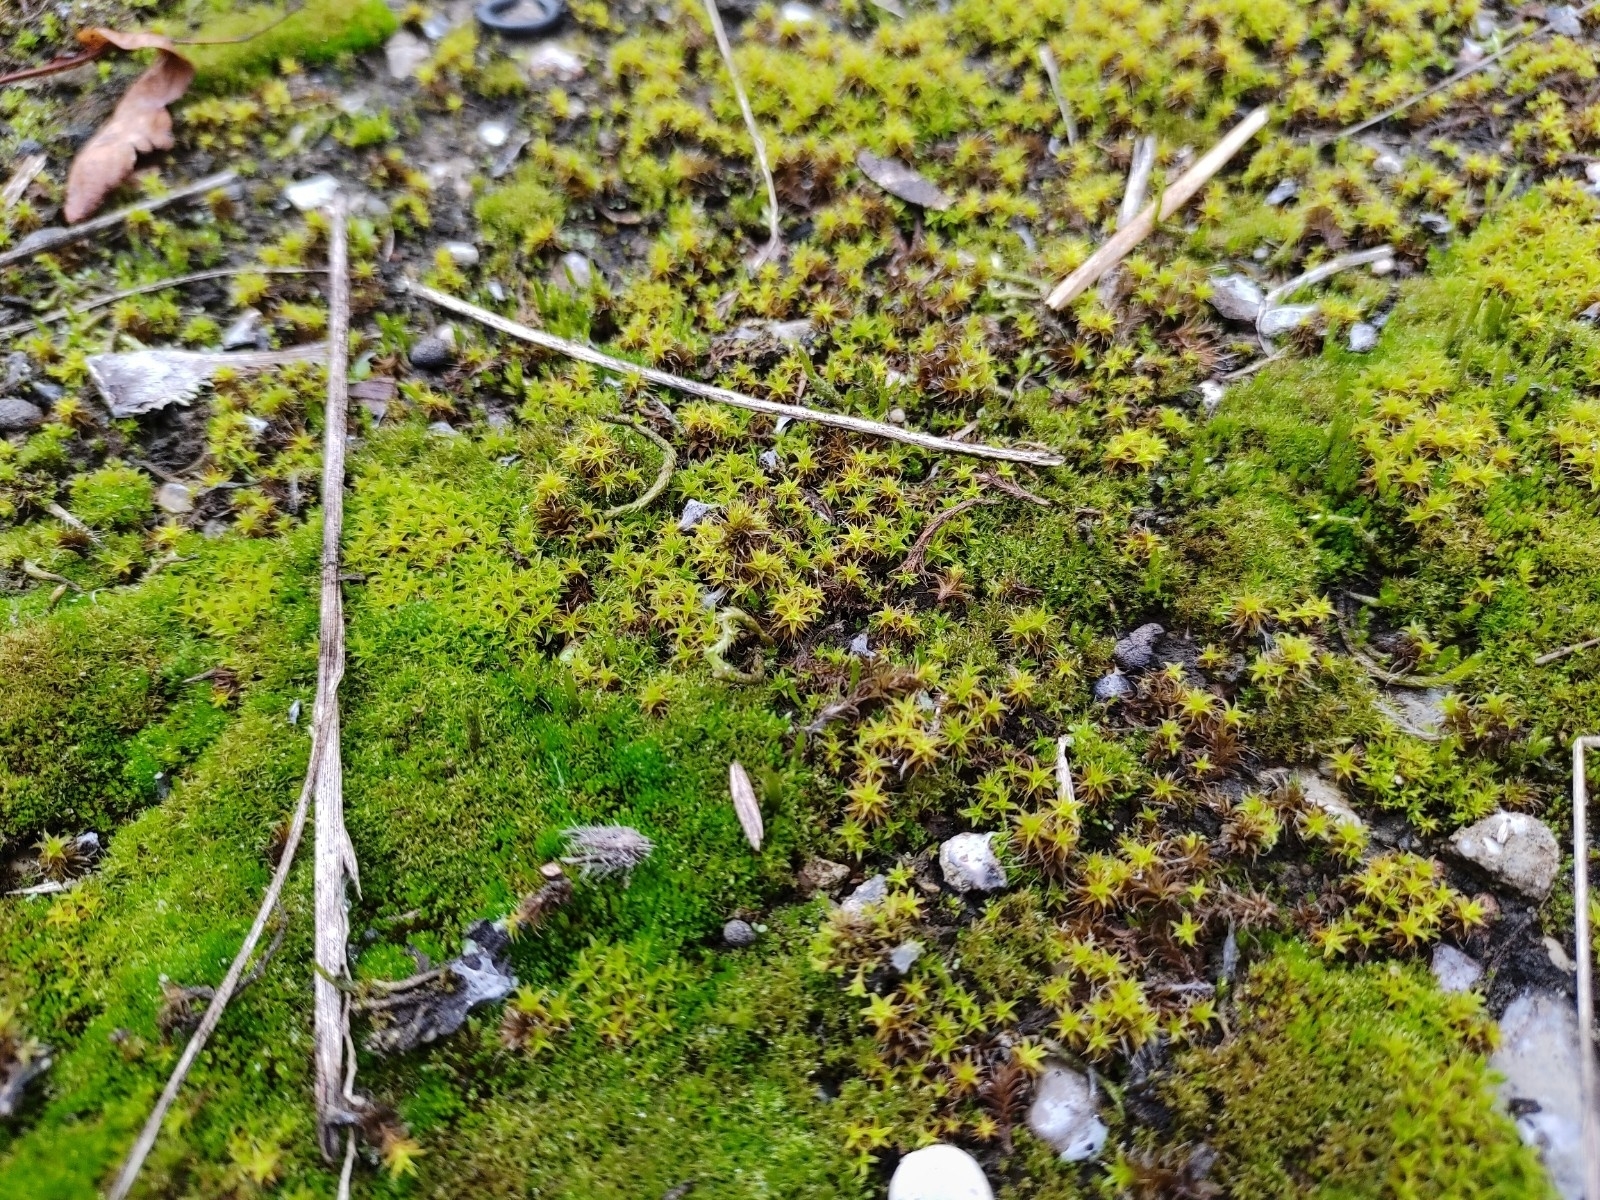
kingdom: Plantae
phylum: Bryophyta
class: Bryopsida
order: Pottiales
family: Pottiaceae
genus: Syntrichia
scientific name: Syntrichia ruralis
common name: Sidewalk screw moss
